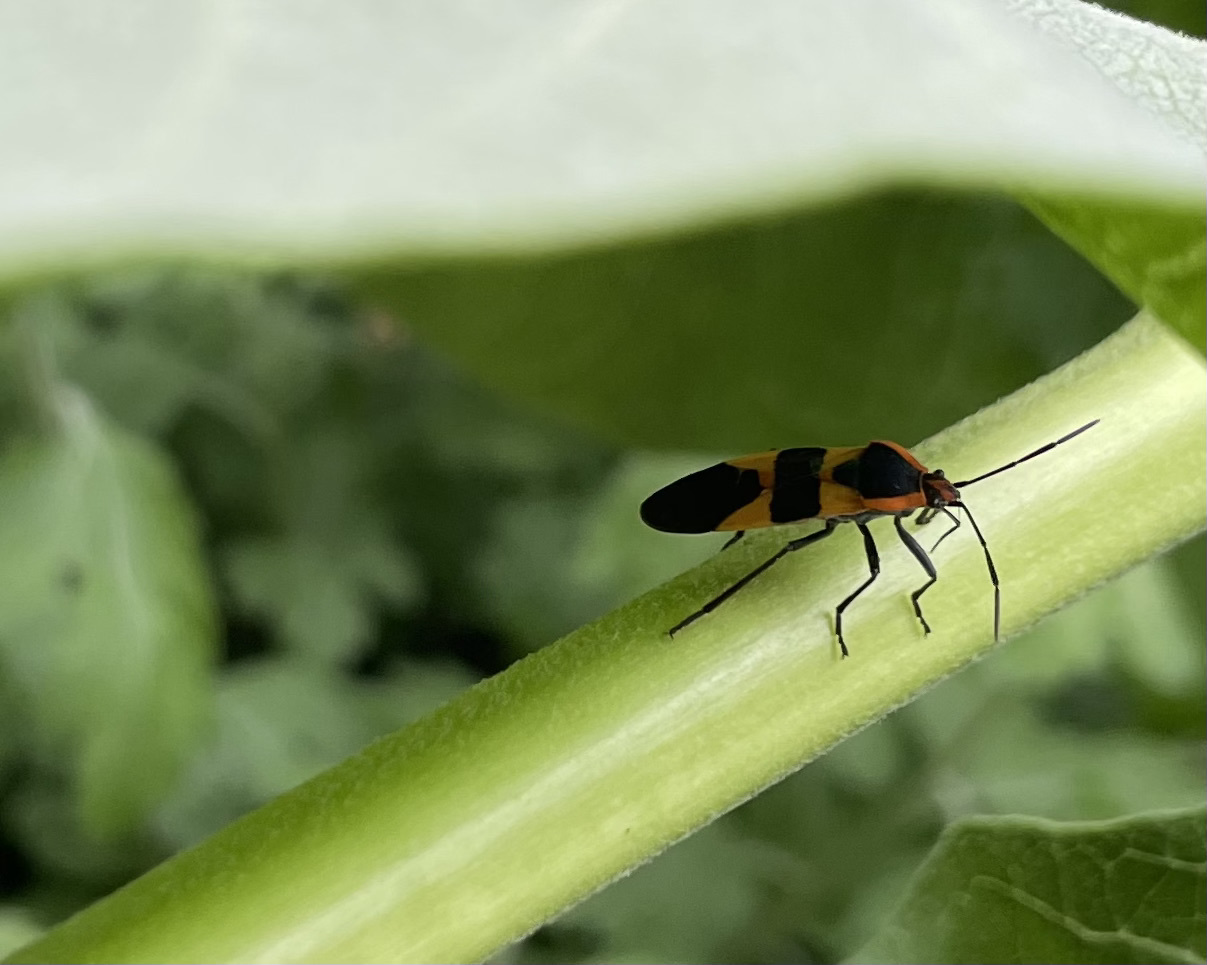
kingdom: Animalia
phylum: Arthropoda
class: Insecta
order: Hemiptera
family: Lygaeidae
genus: Oncopeltus
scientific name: Oncopeltus fasciatus
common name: Large milkweed bug
